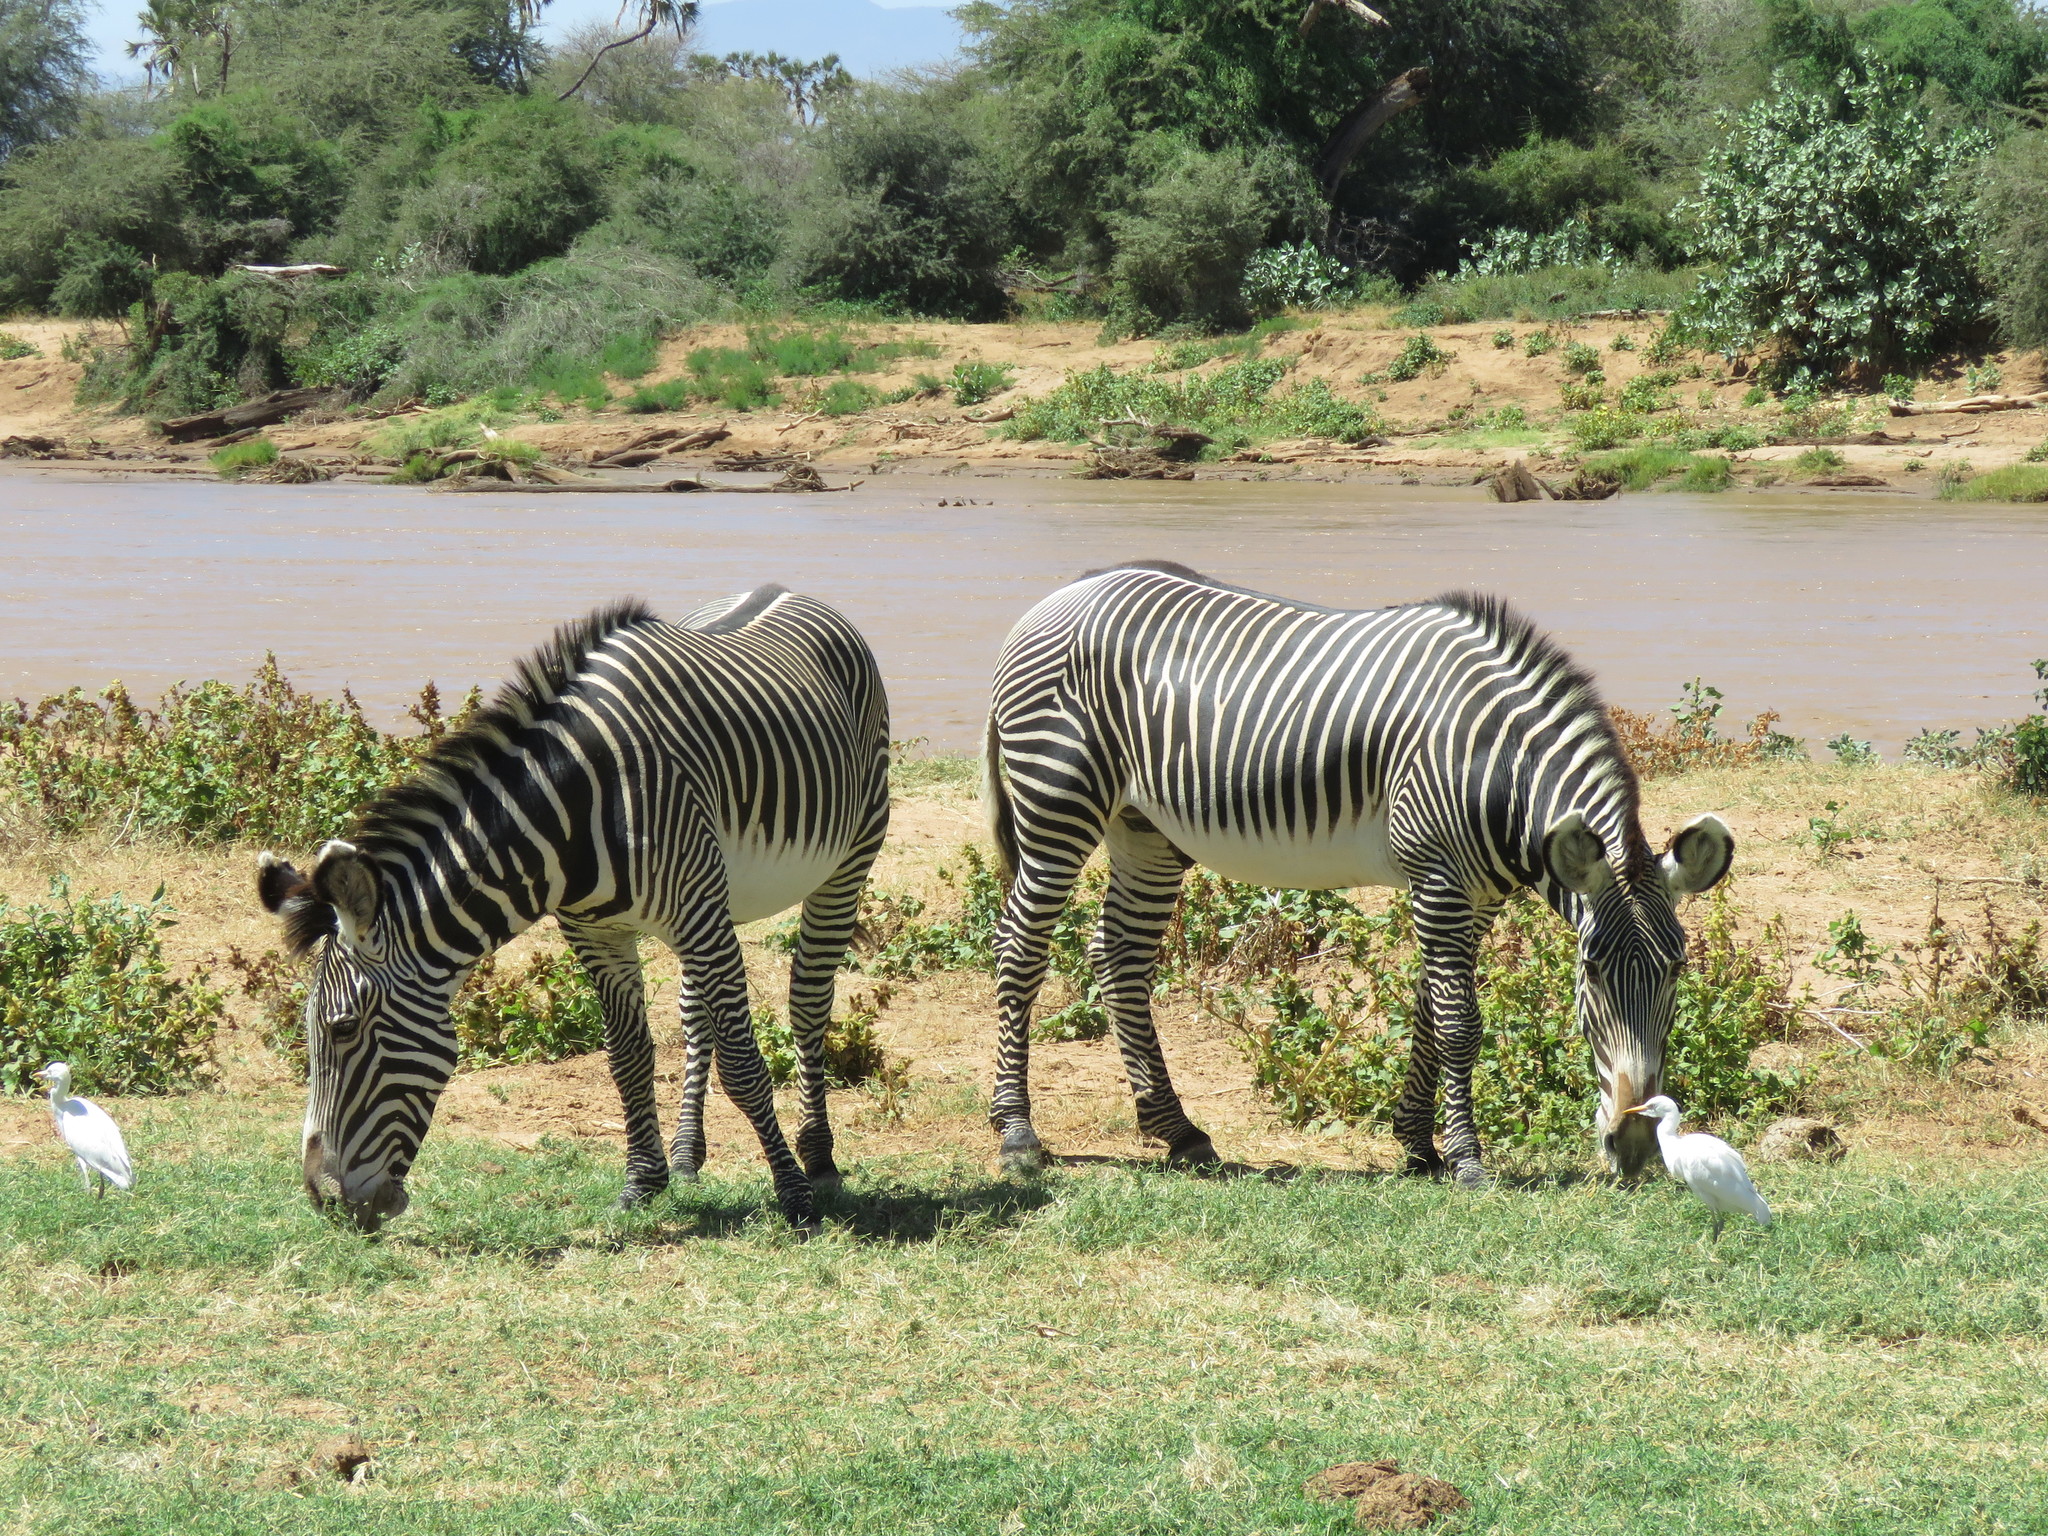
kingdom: Animalia
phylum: Chordata
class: Aves
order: Pelecaniformes
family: Ardeidae
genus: Bubulcus
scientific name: Bubulcus ibis
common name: Cattle egret
